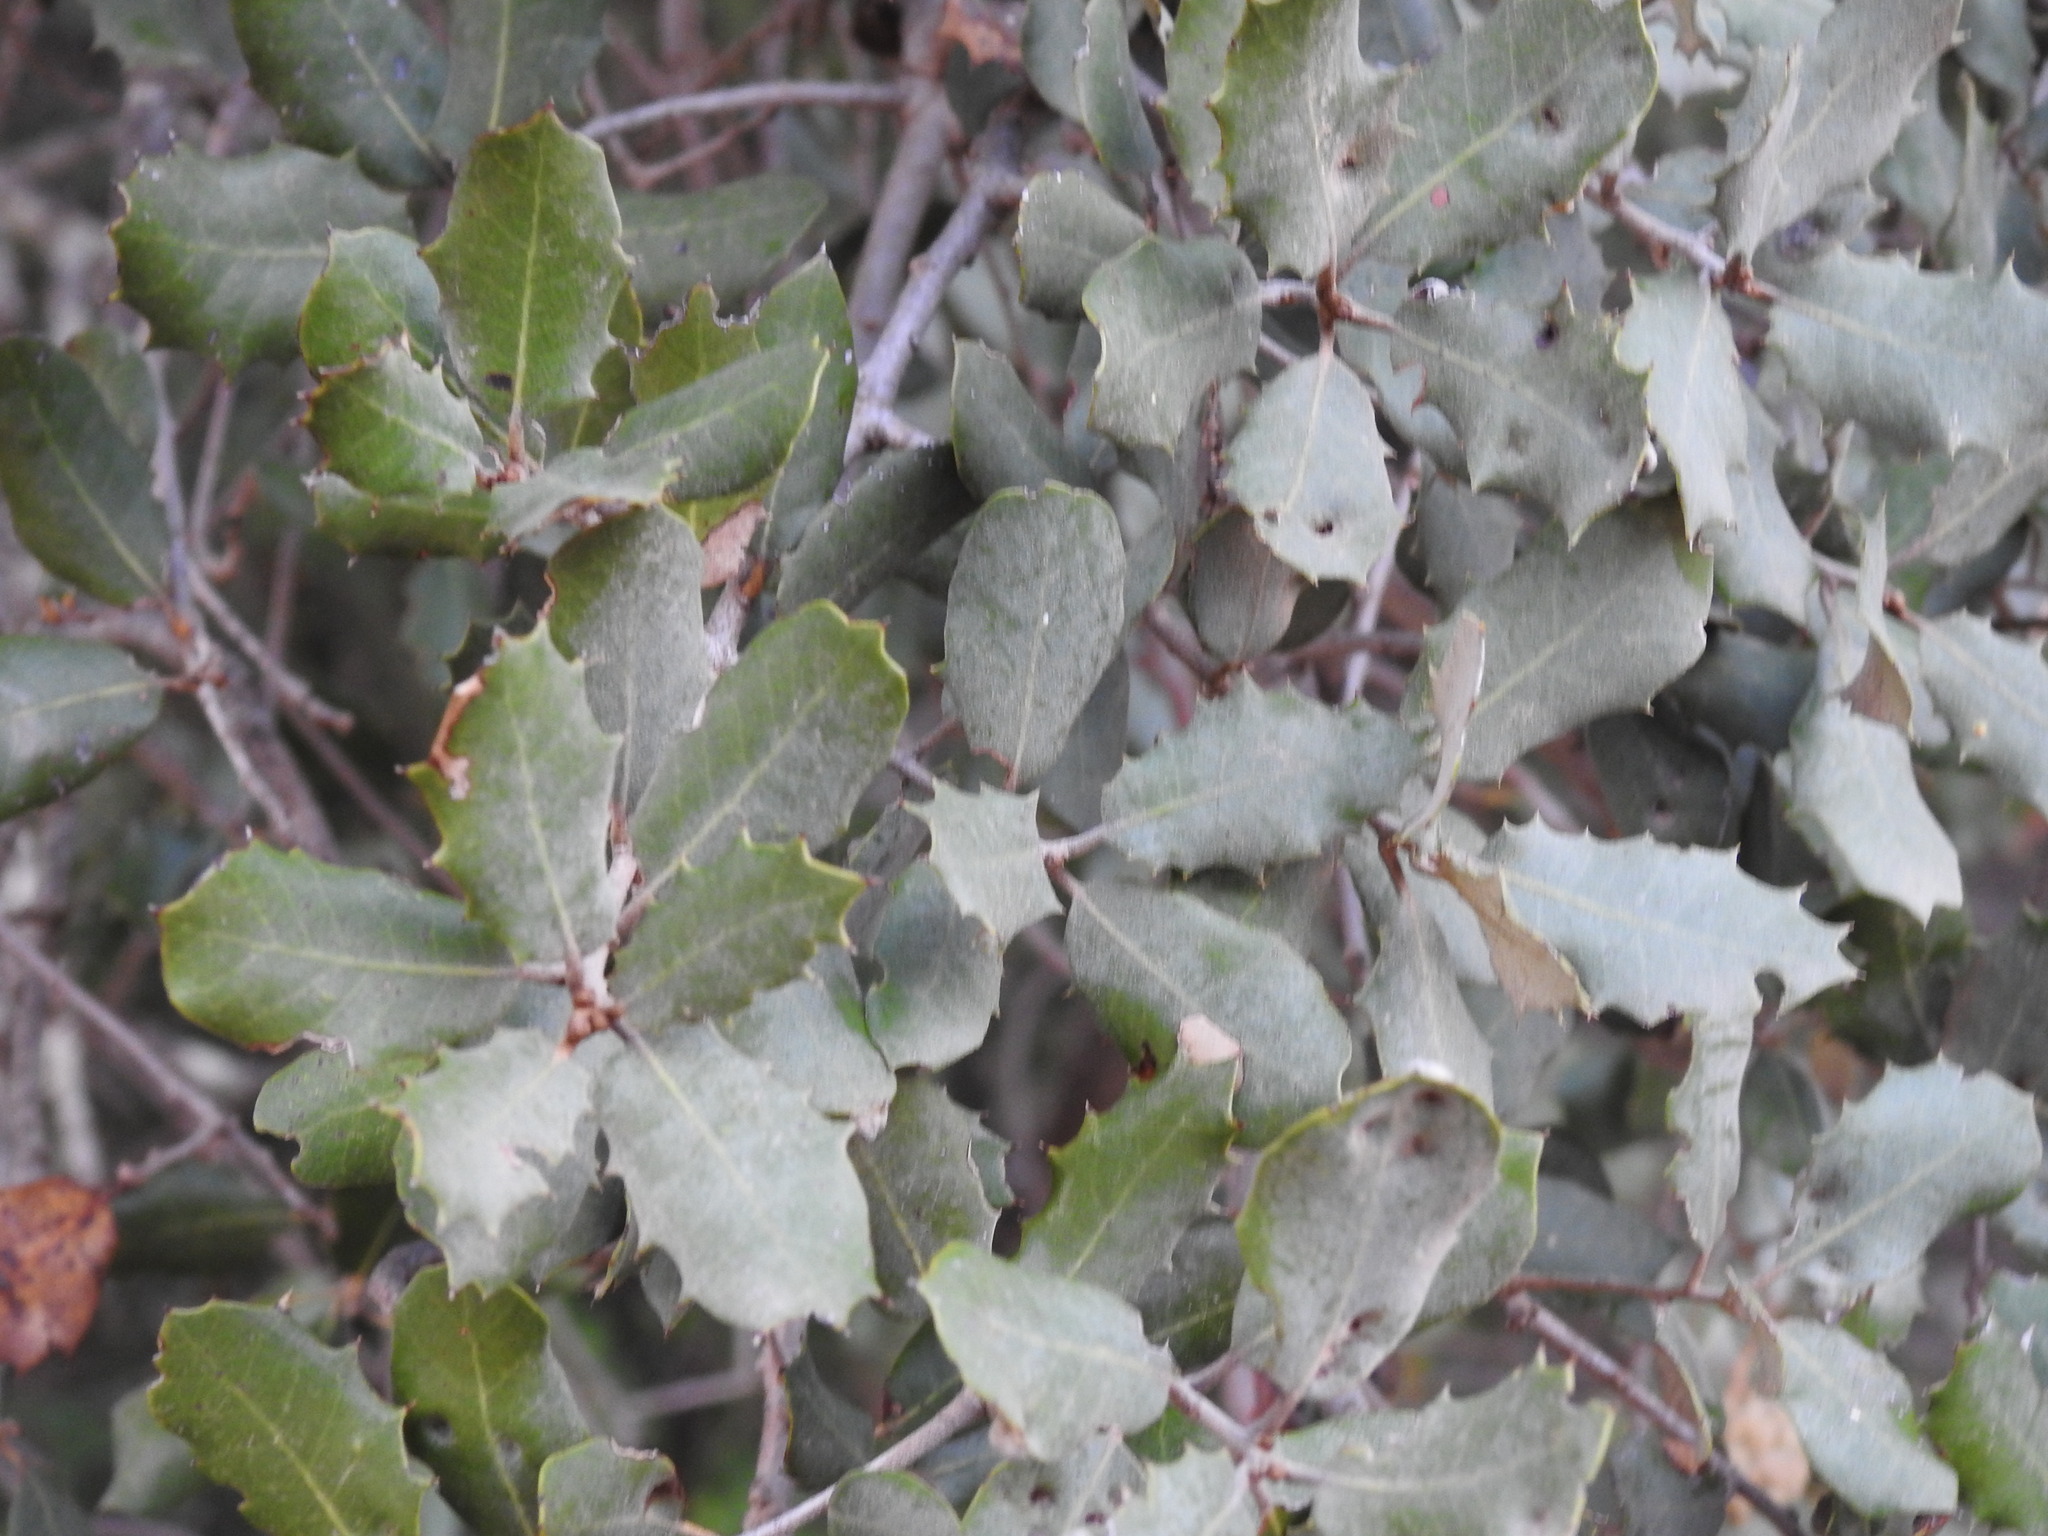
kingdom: Plantae
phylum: Tracheophyta
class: Magnoliopsida
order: Fagales
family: Fagaceae
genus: Quercus
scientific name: Quercus rotundifolia
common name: Holm oak
